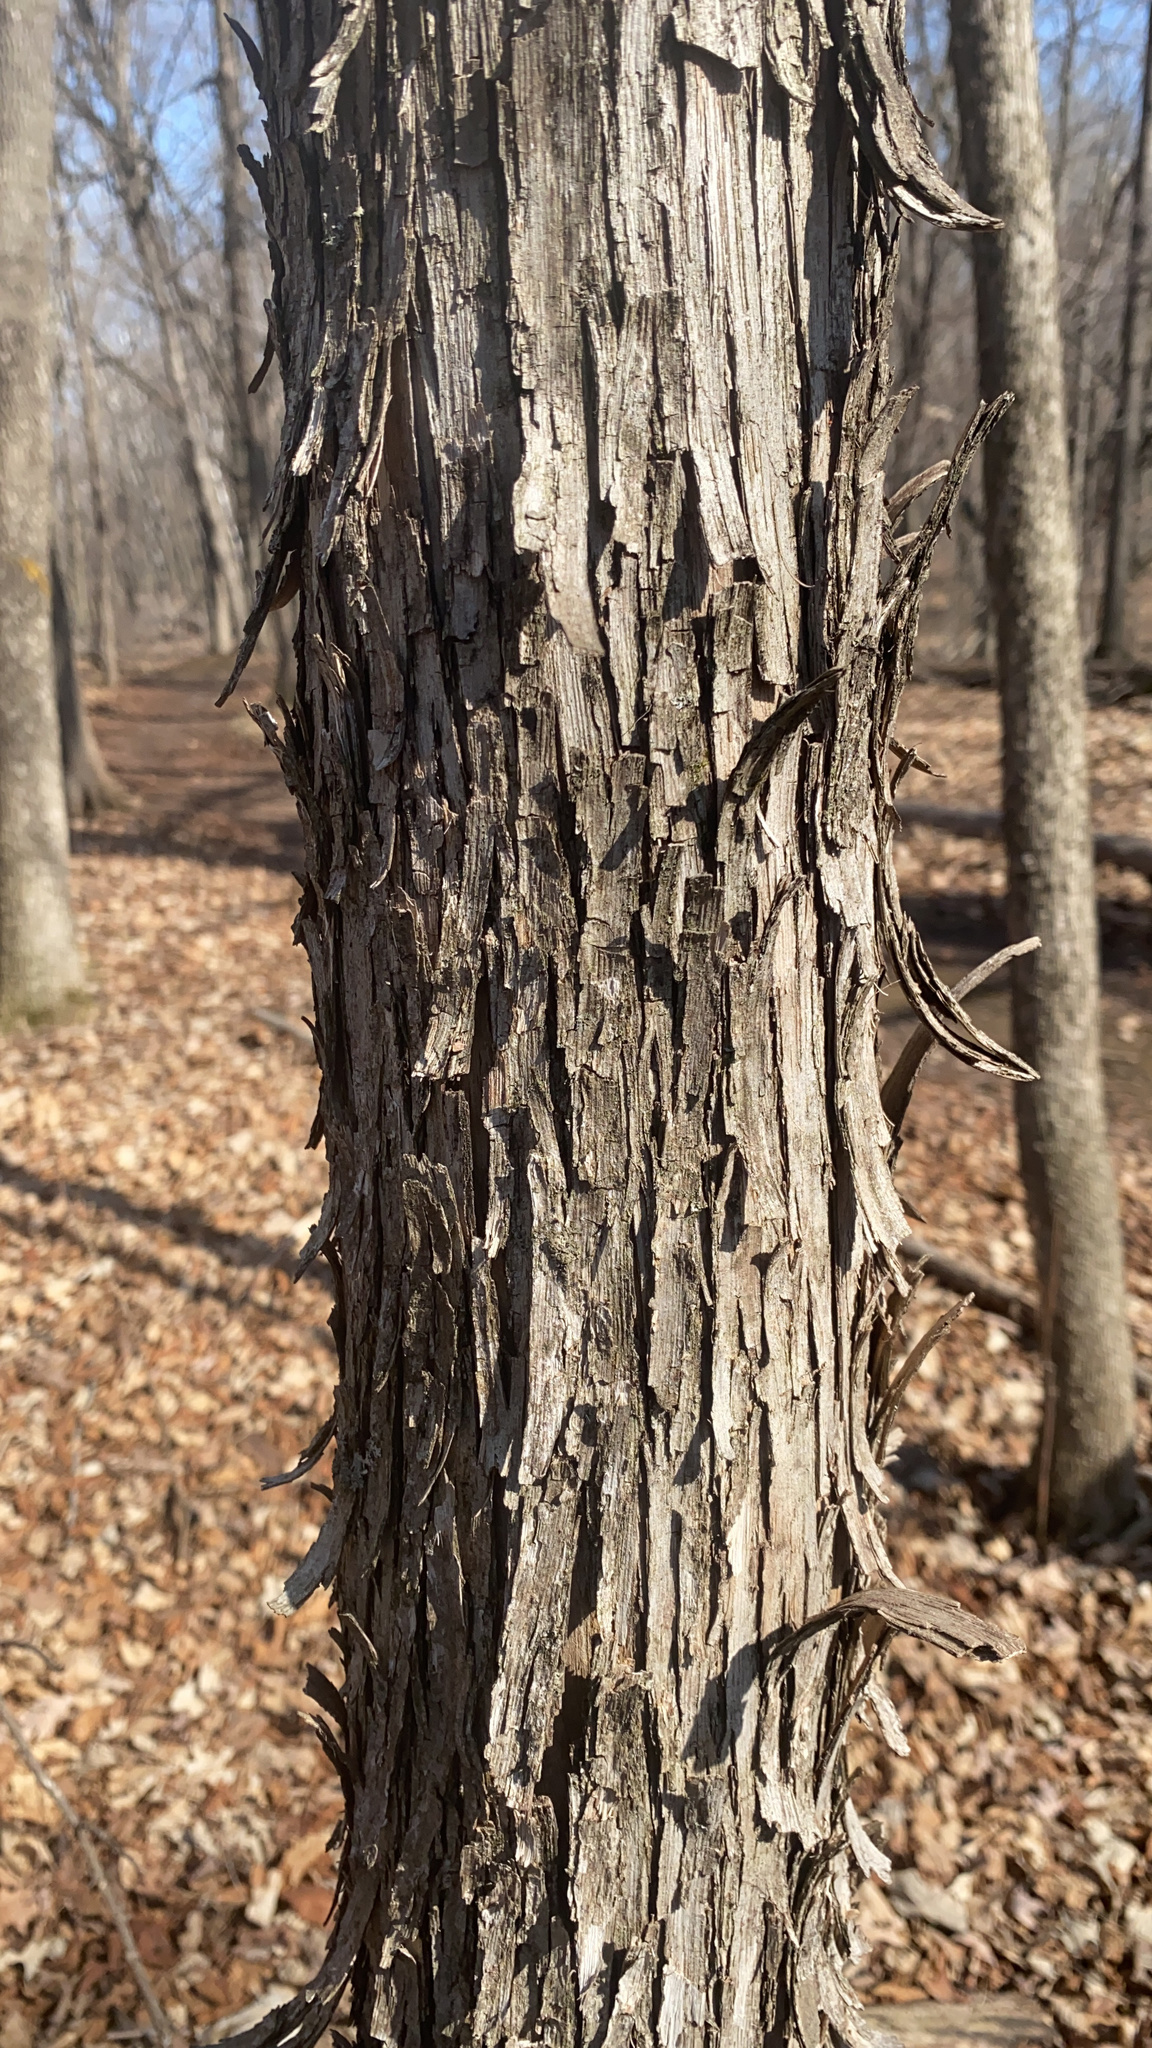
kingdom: Plantae
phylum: Tracheophyta
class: Magnoliopsida
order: Fagales
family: Betulaceae
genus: Ostrya
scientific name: Ostrya virginiana
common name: Ironwood
